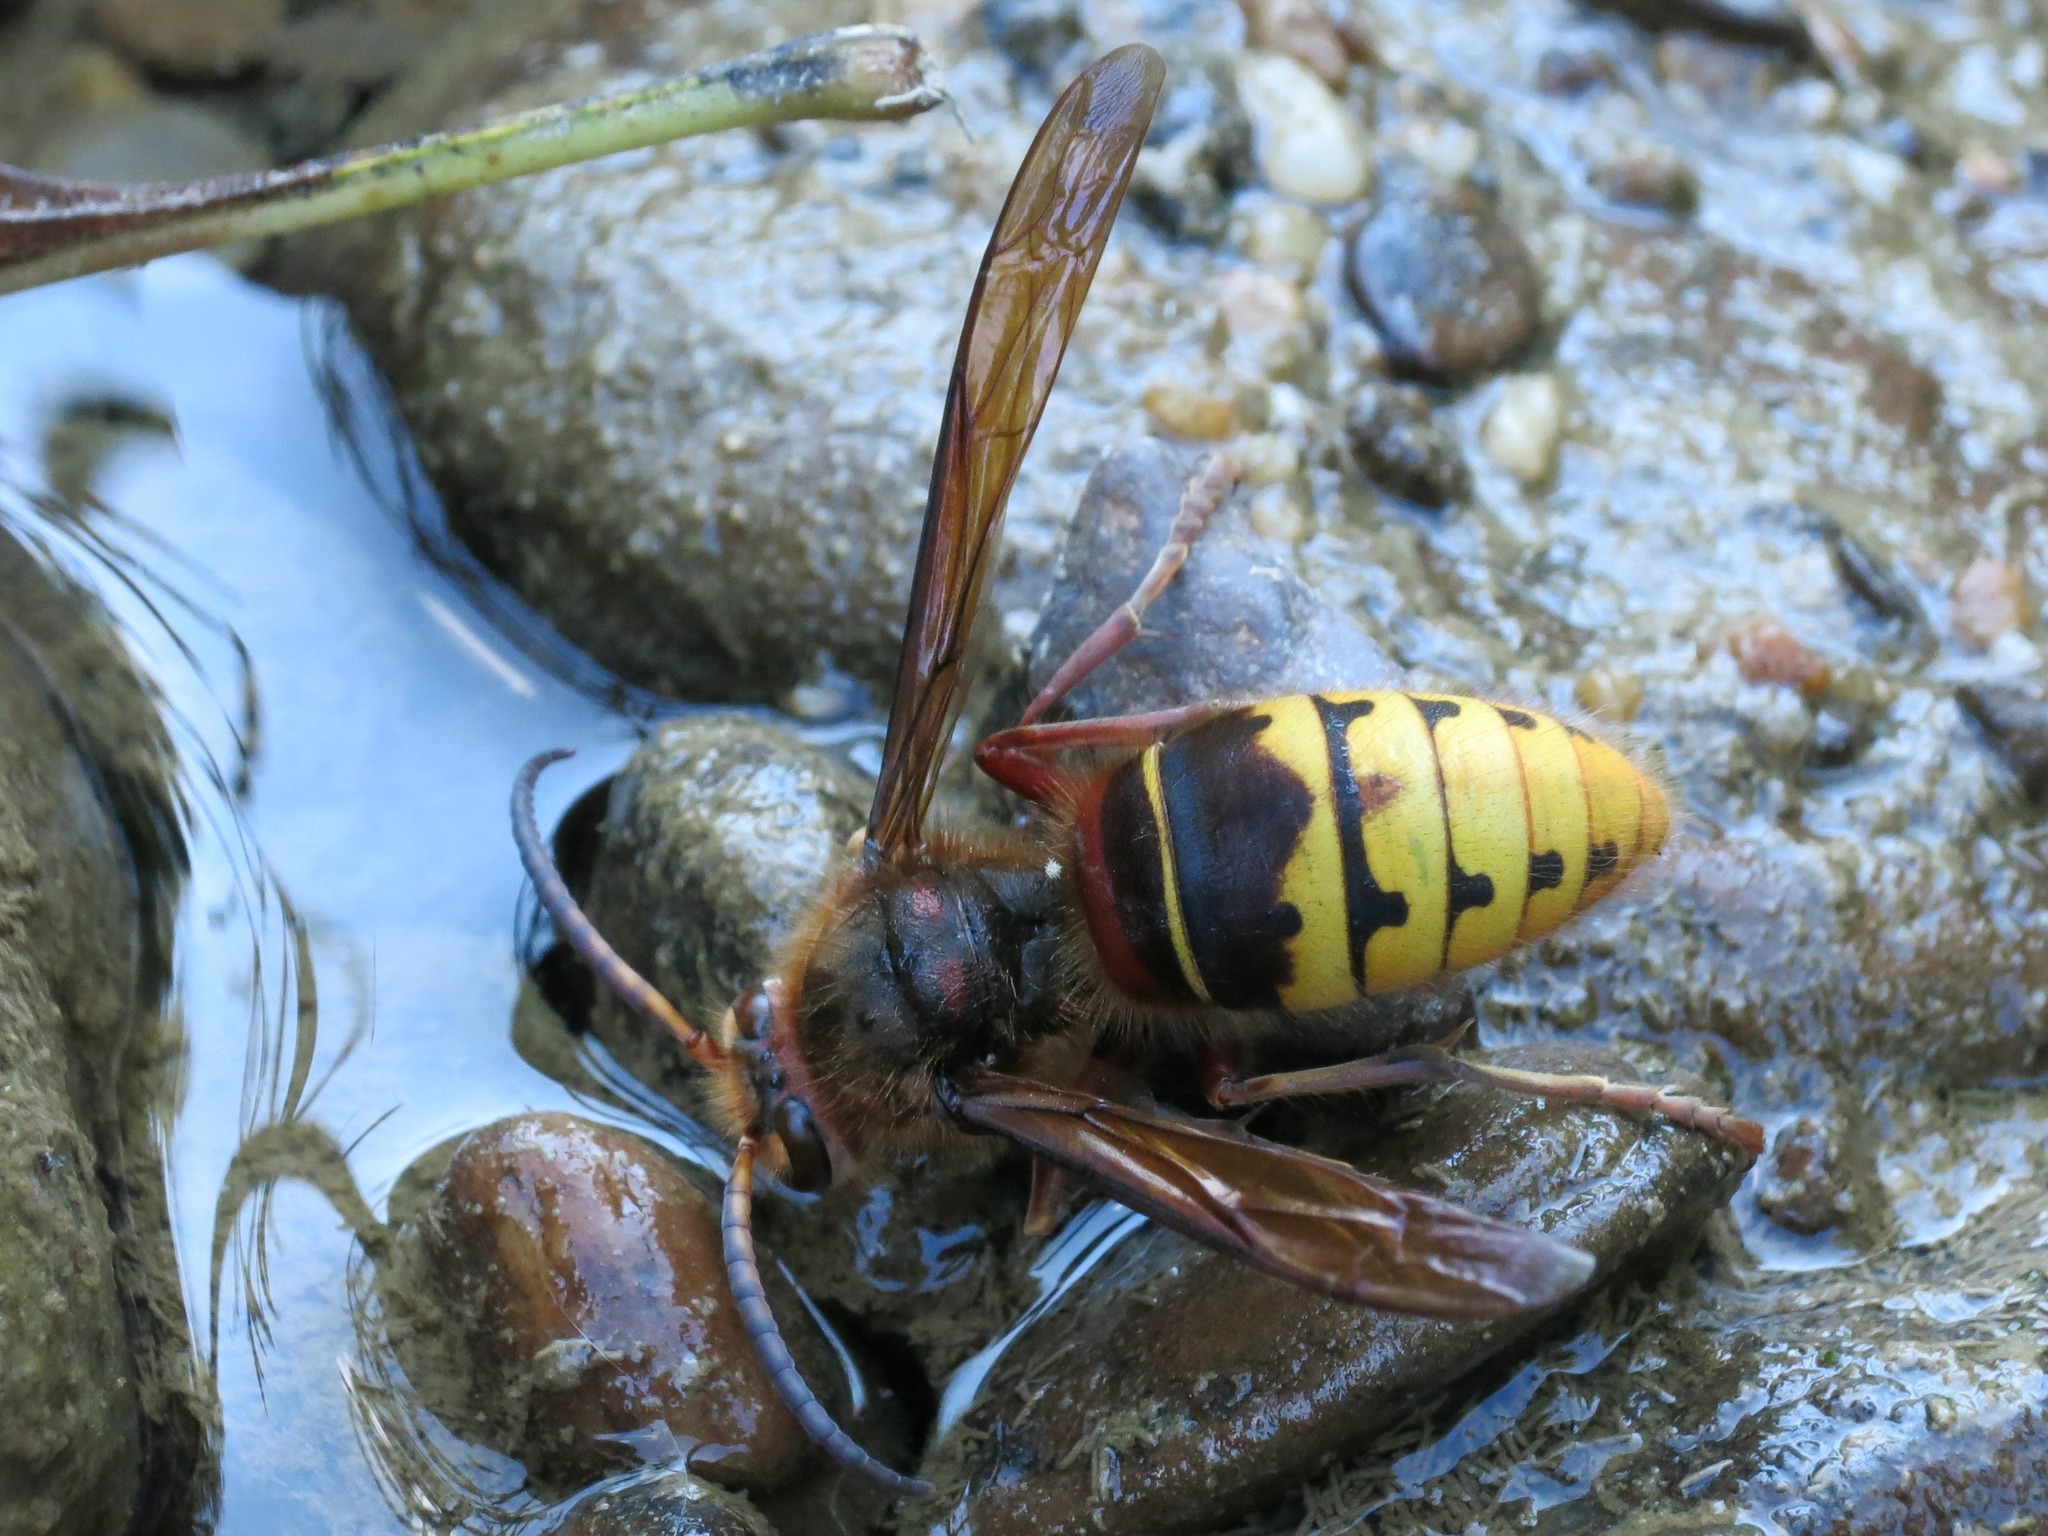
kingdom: Animalia
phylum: Arthropoda
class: Insecta
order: Hymenoptera
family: Vespidae
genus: Vespa
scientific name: Vespa crabro
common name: Hornet
